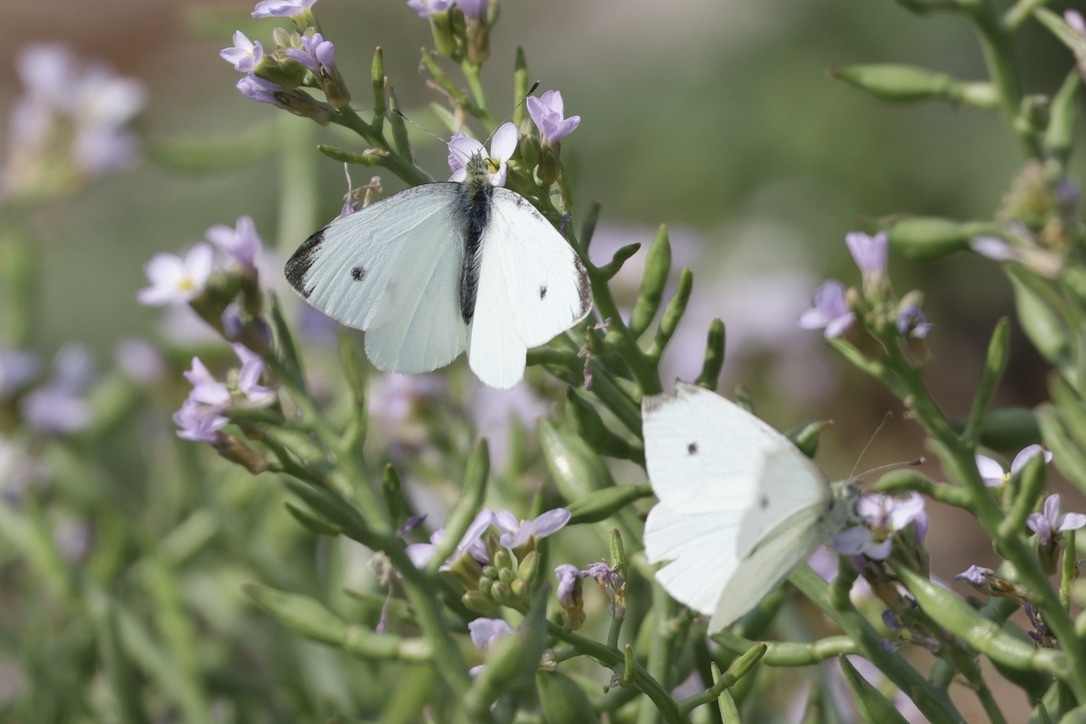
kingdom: Animalia
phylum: Arthropoda
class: Insecta
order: Lepidoptera
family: Pieridae
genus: Pieris
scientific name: Pieris rapae
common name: Small white
